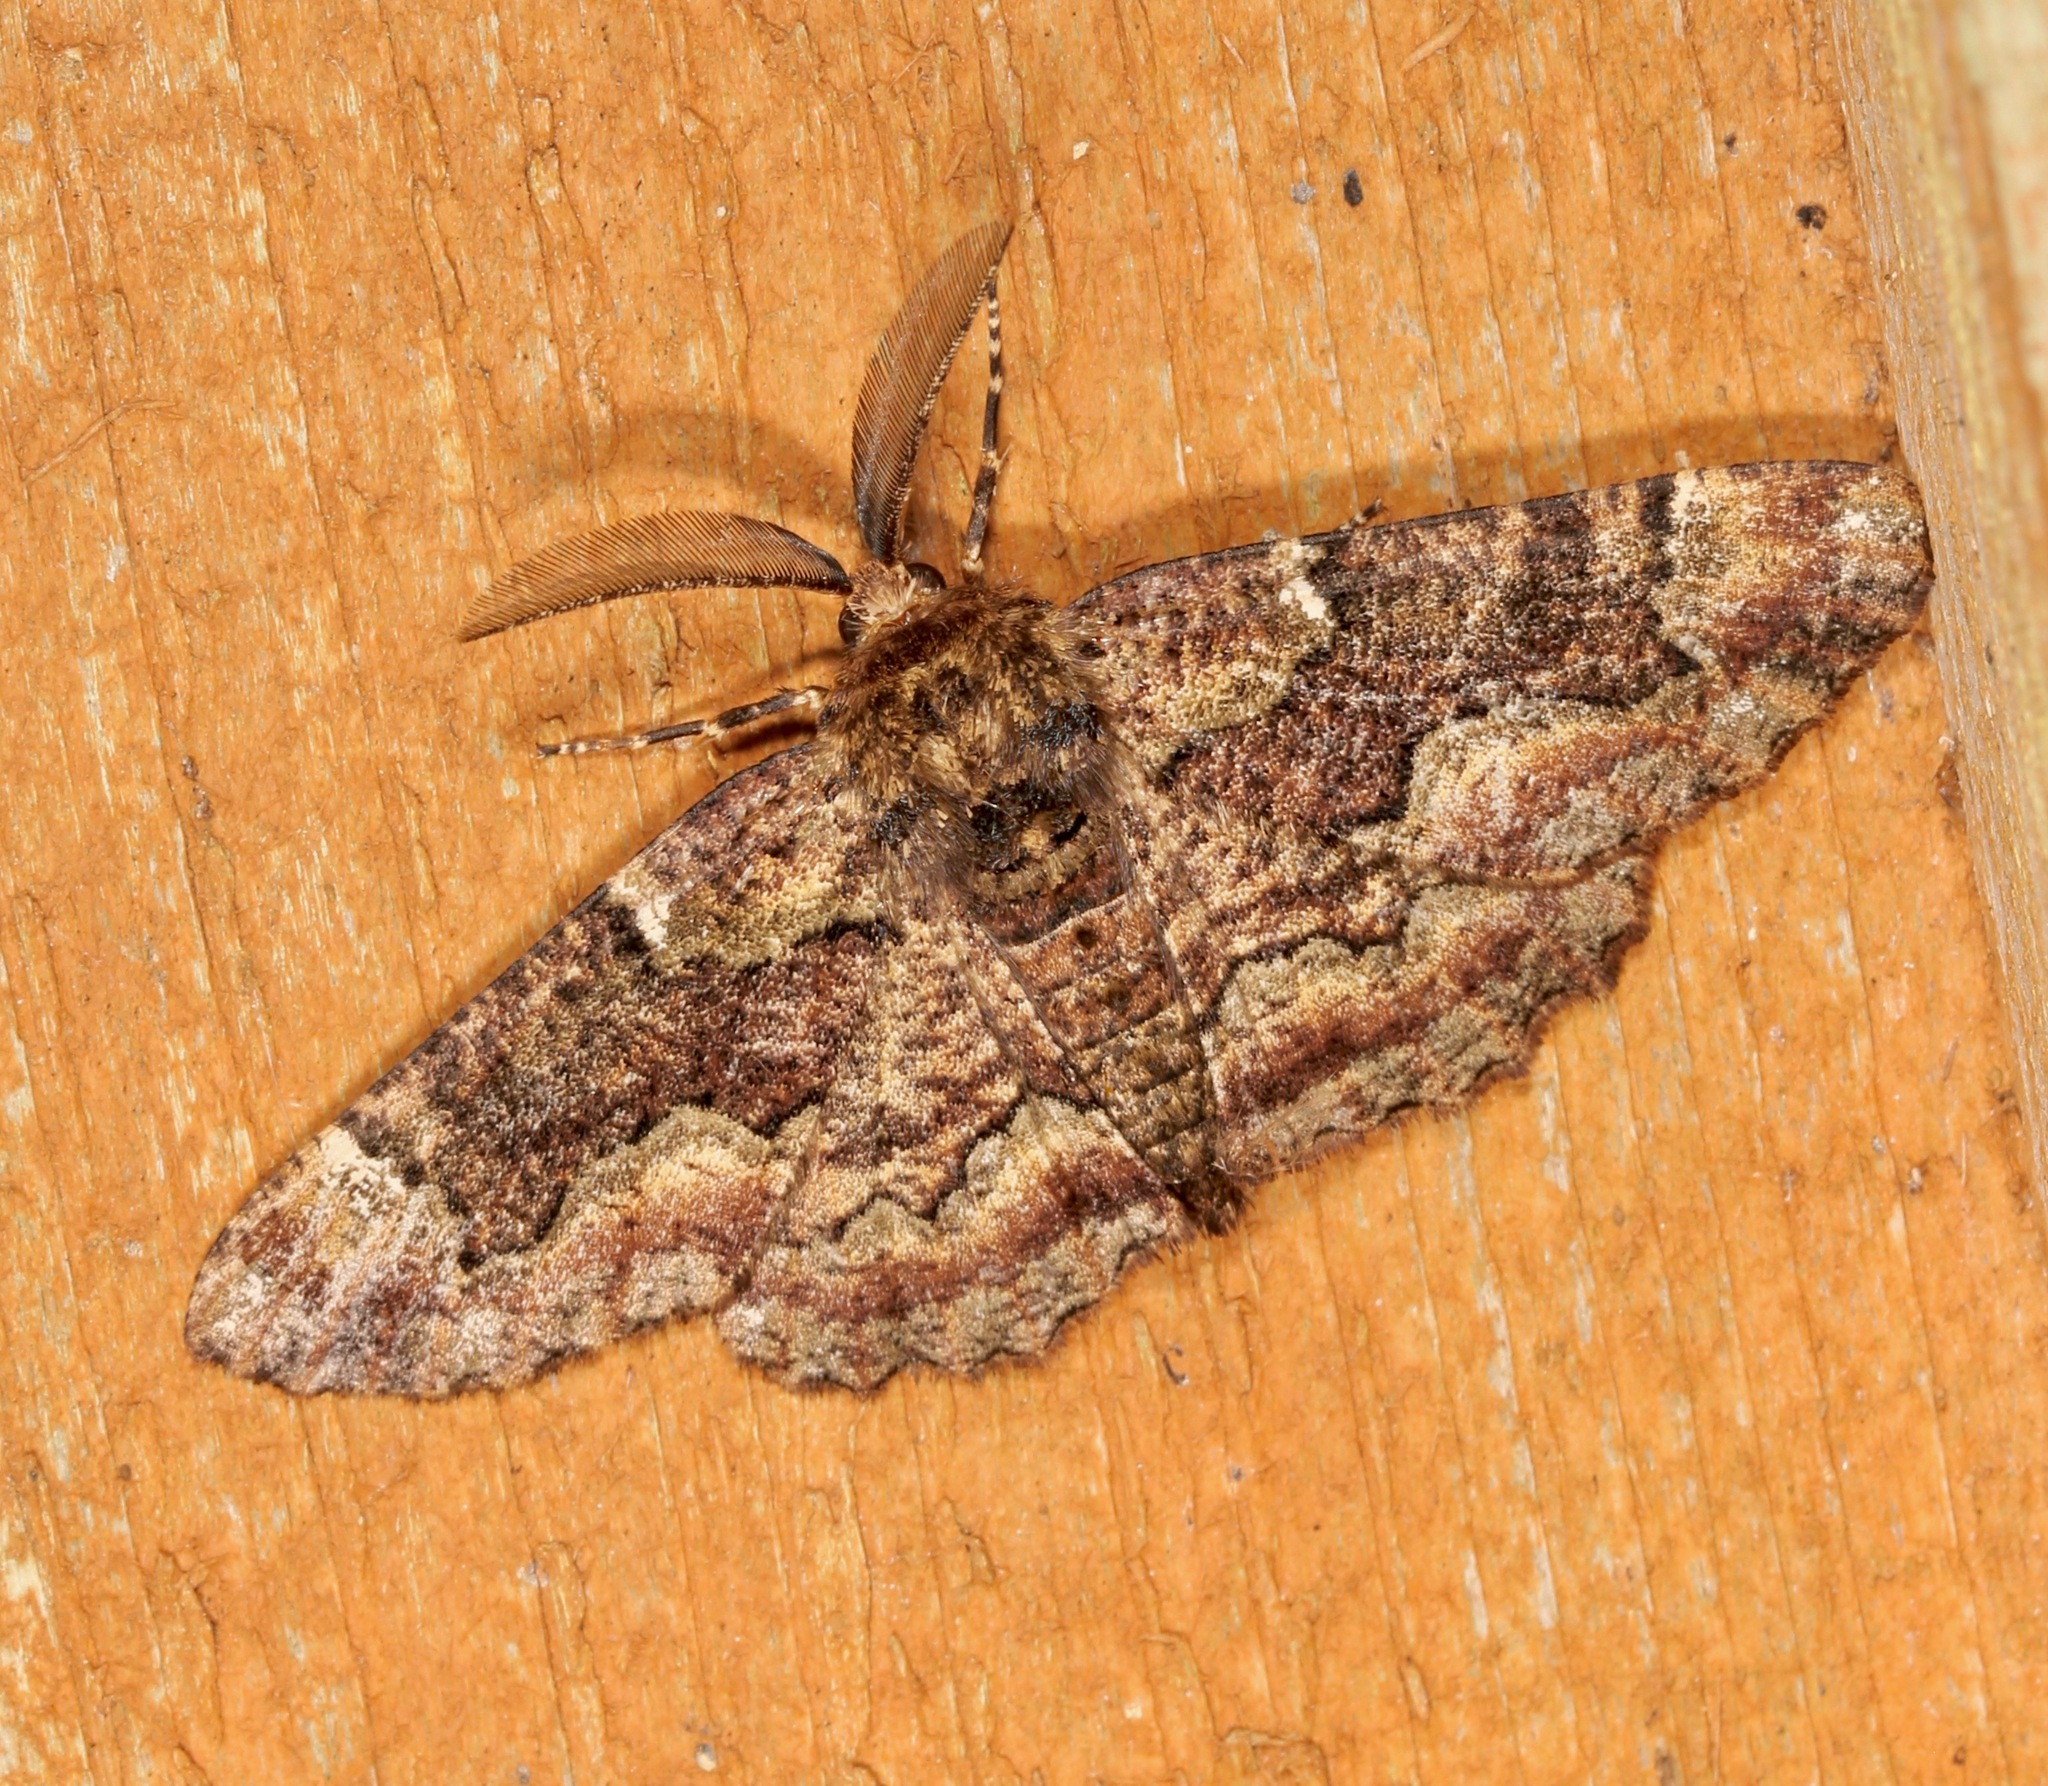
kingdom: Animalia
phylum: Arthropoda
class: Insecta
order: Lepidoptera
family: Geometridae
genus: Phaeoura
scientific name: Phaeoura quernaria
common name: Oak beauty
